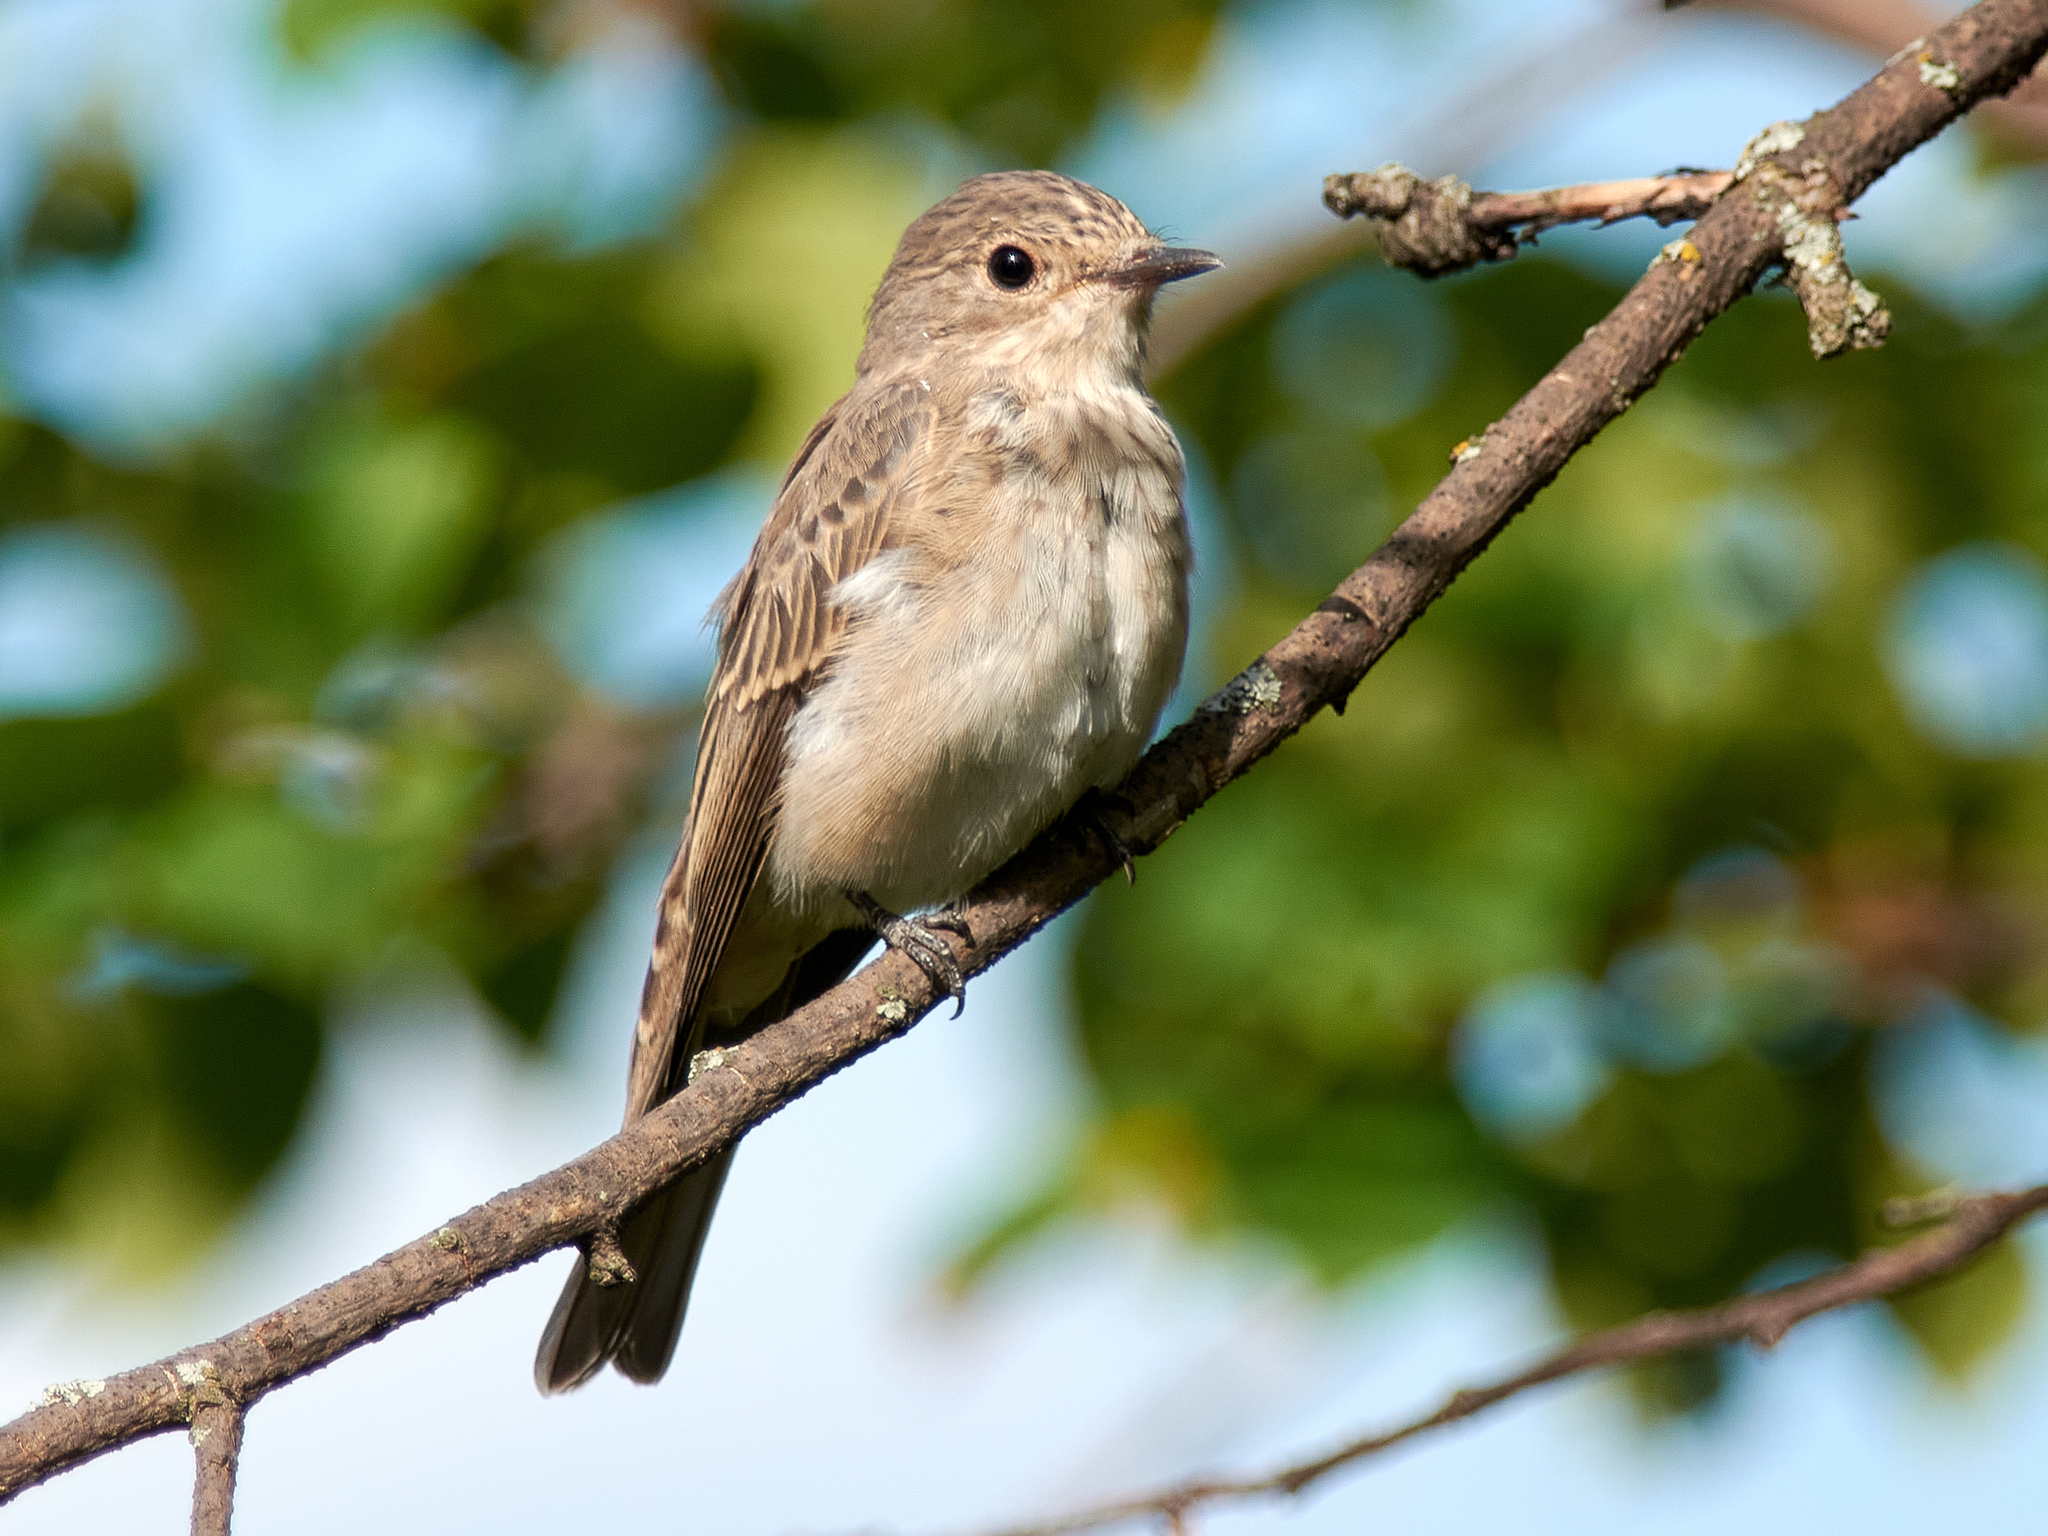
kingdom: Animalia
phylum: Chordata
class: Aves
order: Passeriformes
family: Muscicapidae
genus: Muscicapa
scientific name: Muscicapa striata
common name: Spotted flycatcher
